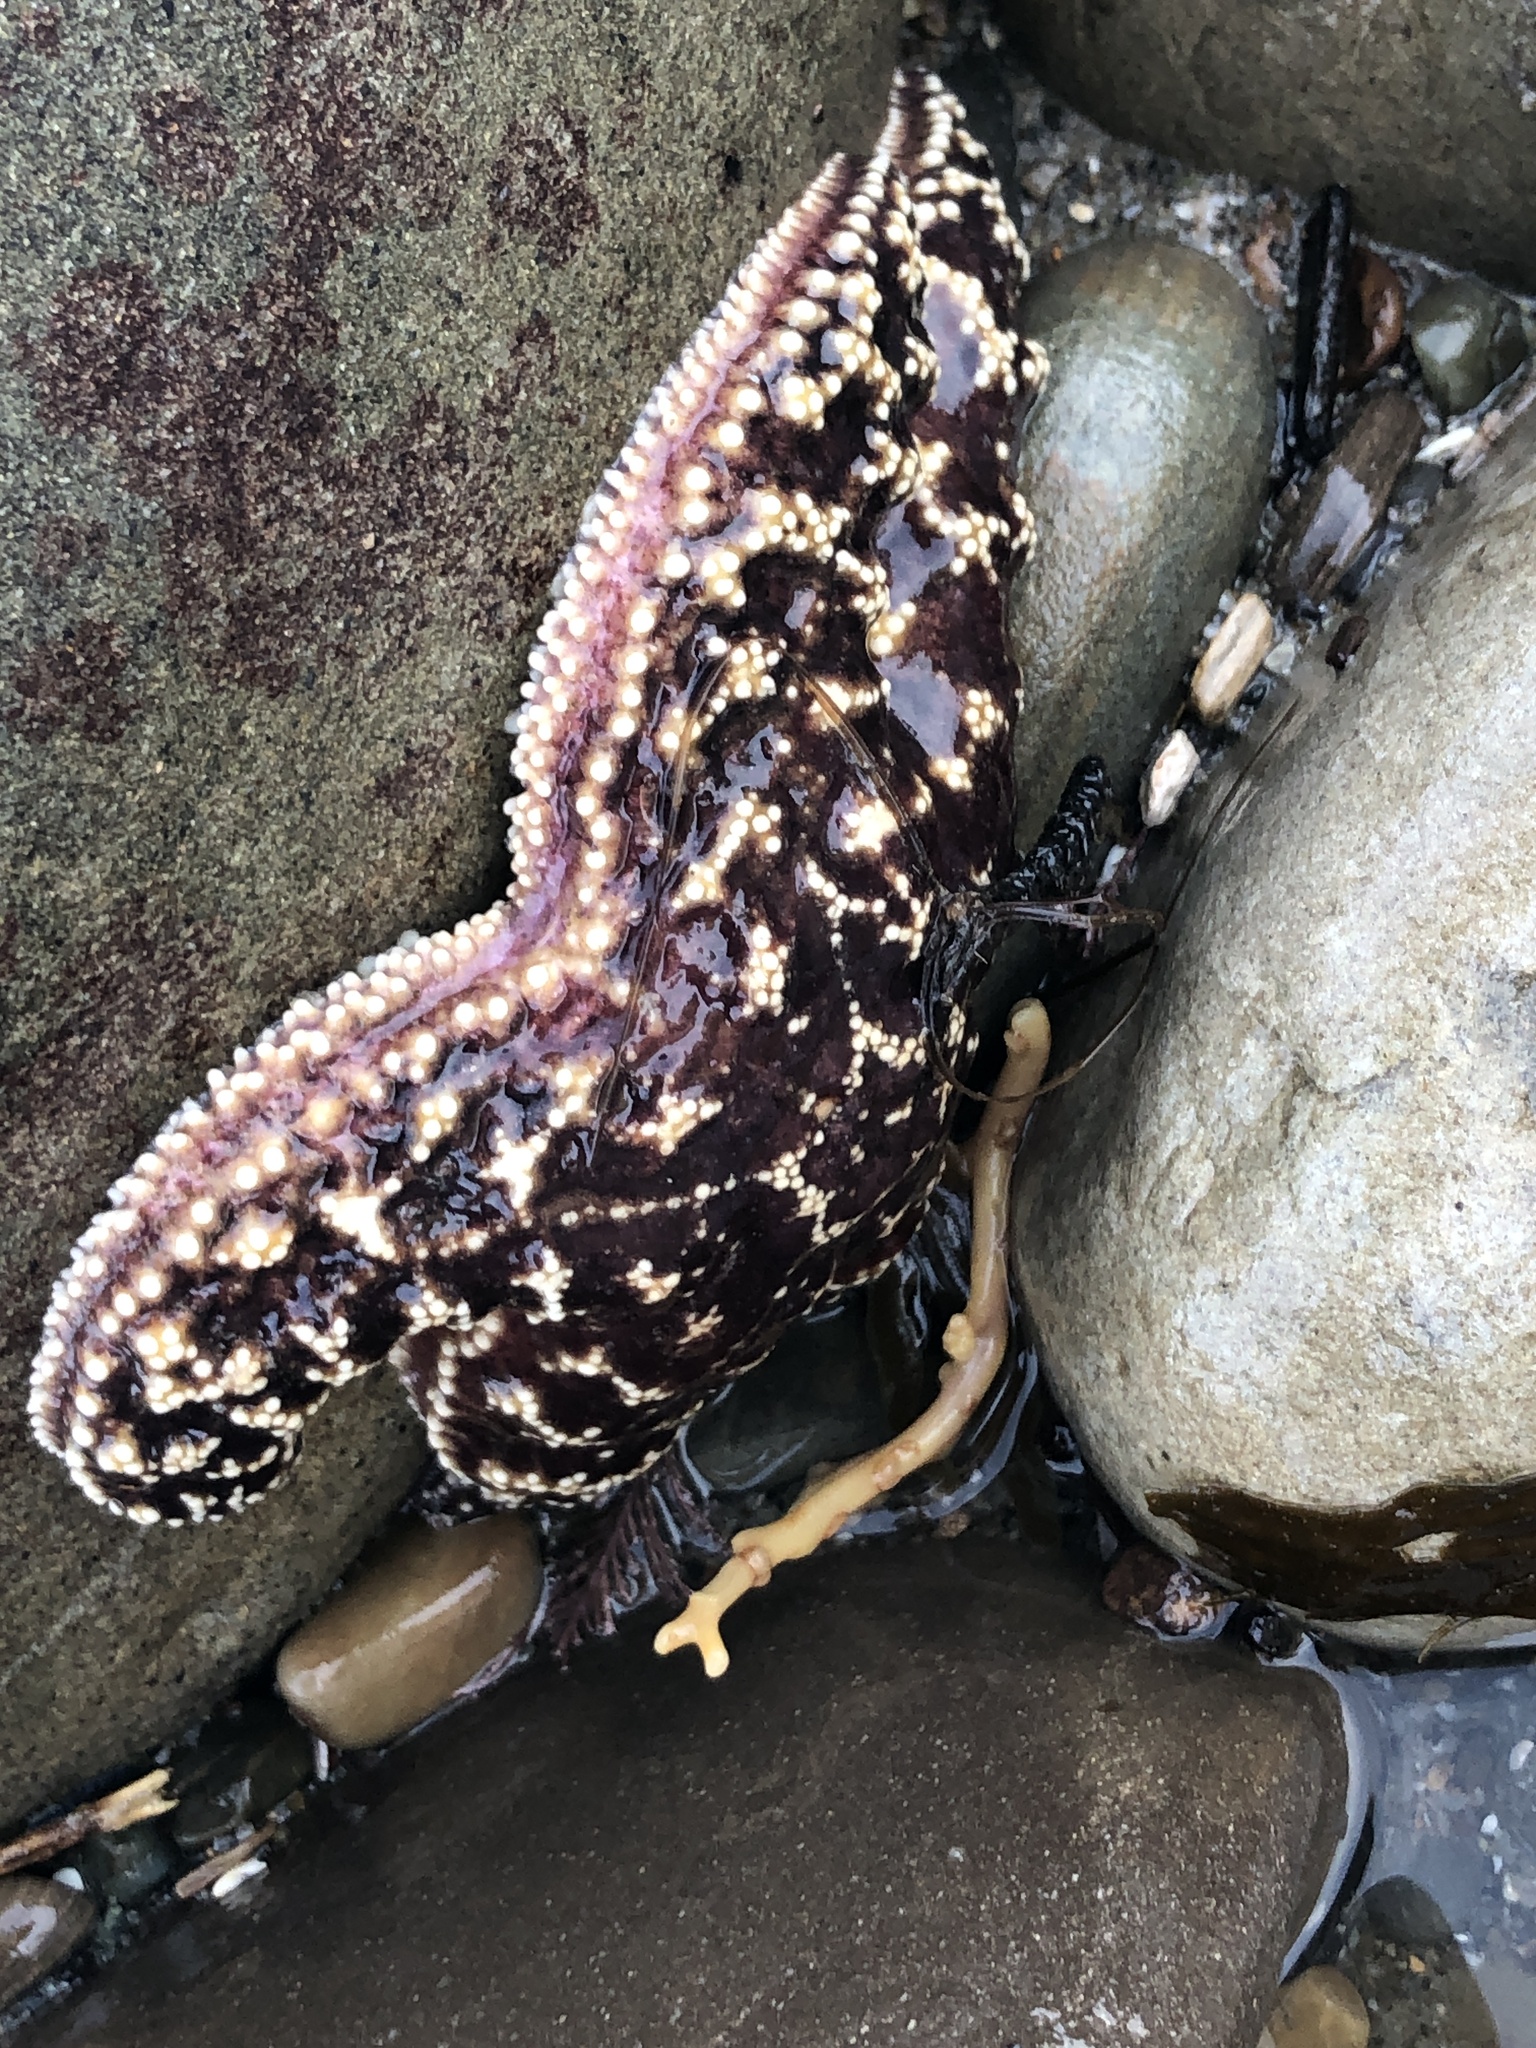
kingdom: Animalia
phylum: Echinodermata
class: Asteroidea
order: Forcipulatida
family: Asteriidae
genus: Pisaster
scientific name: Pisaster ochraceus
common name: Ochre stars
